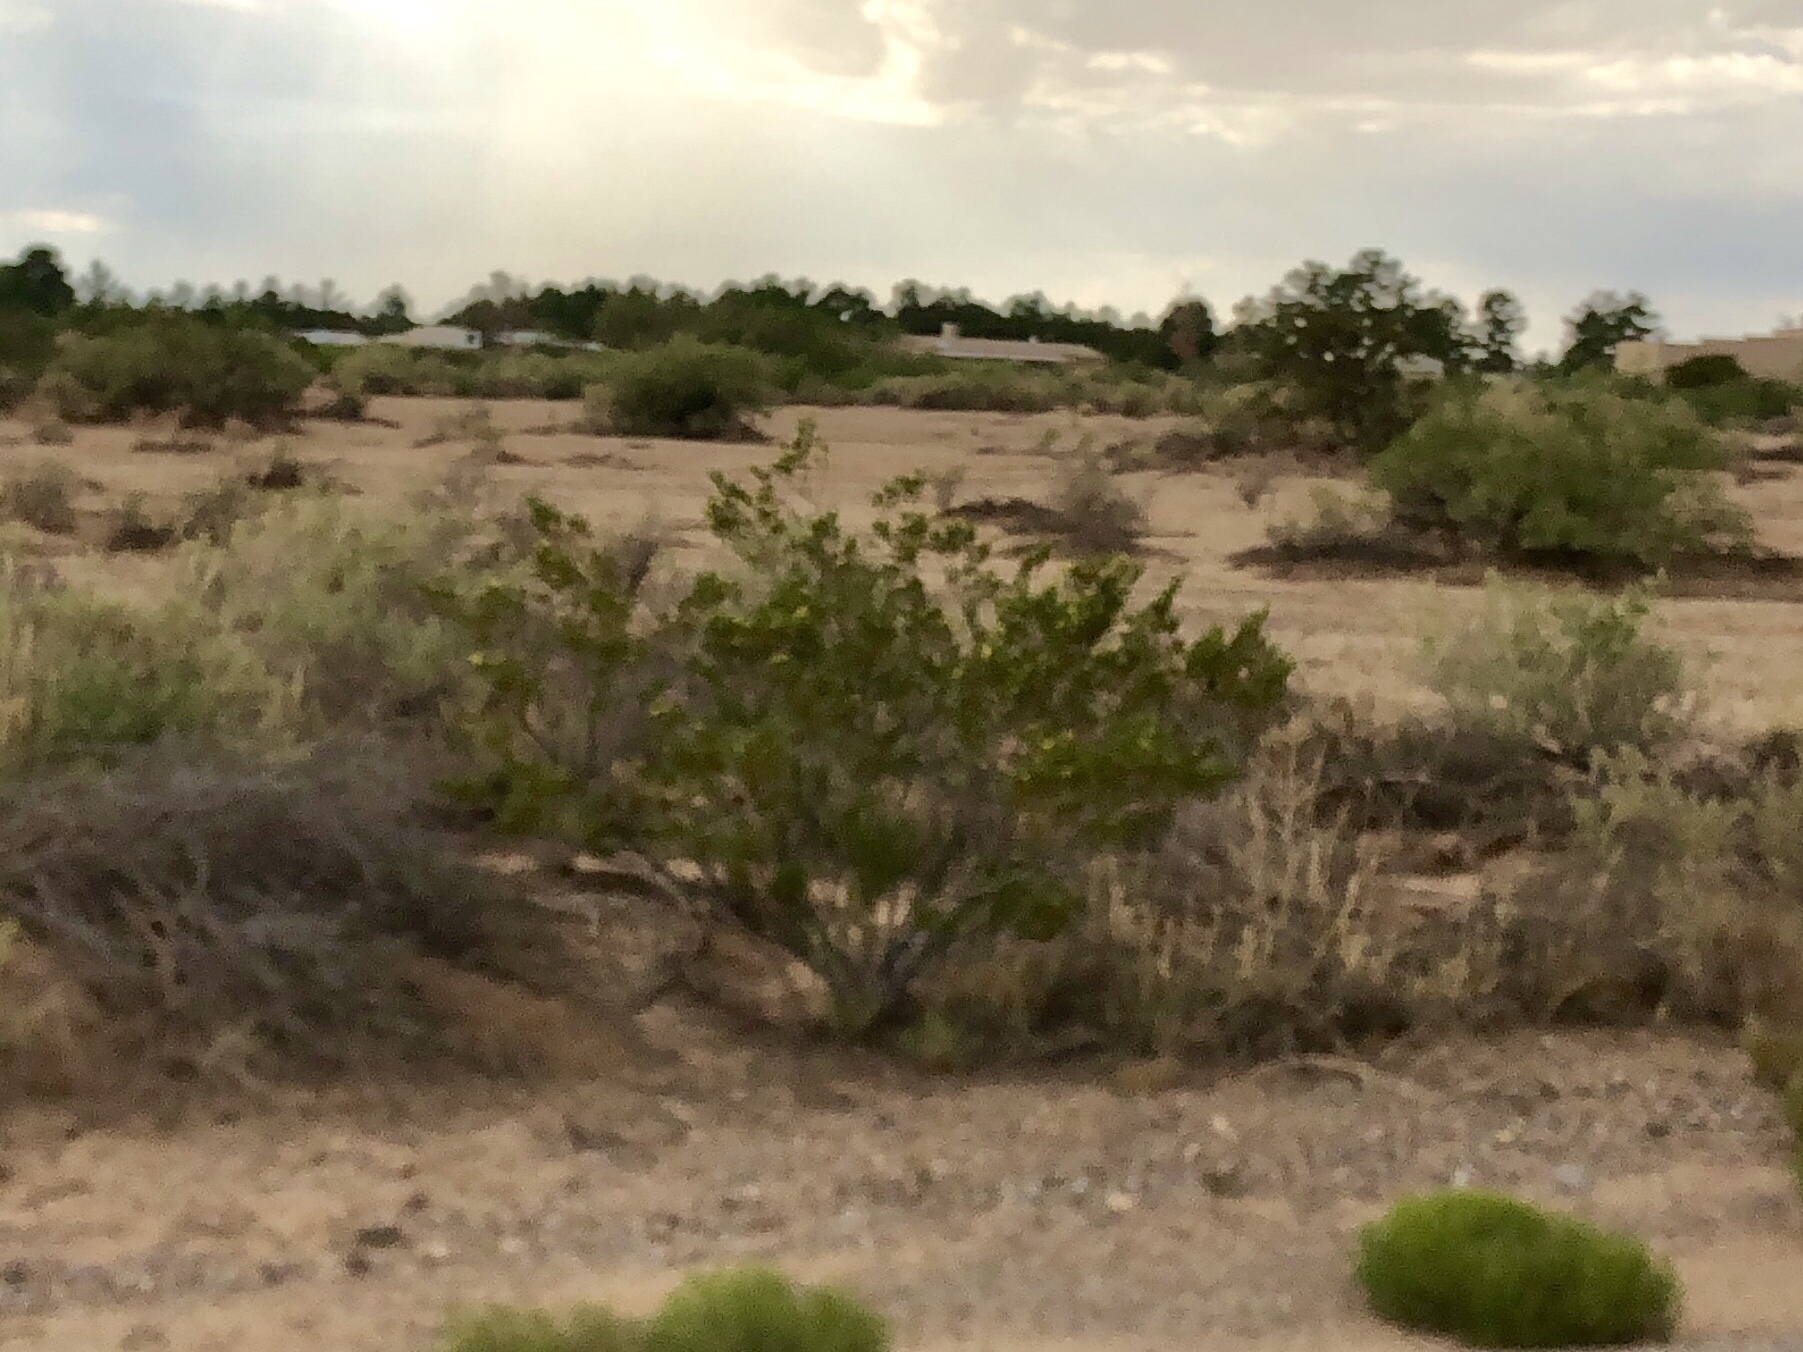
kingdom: Plantae
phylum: Tracheophyta
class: Magnoliopsida
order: Zygophyllales
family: Zygophyllaceae
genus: Larrea
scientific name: Larrea tridentata
